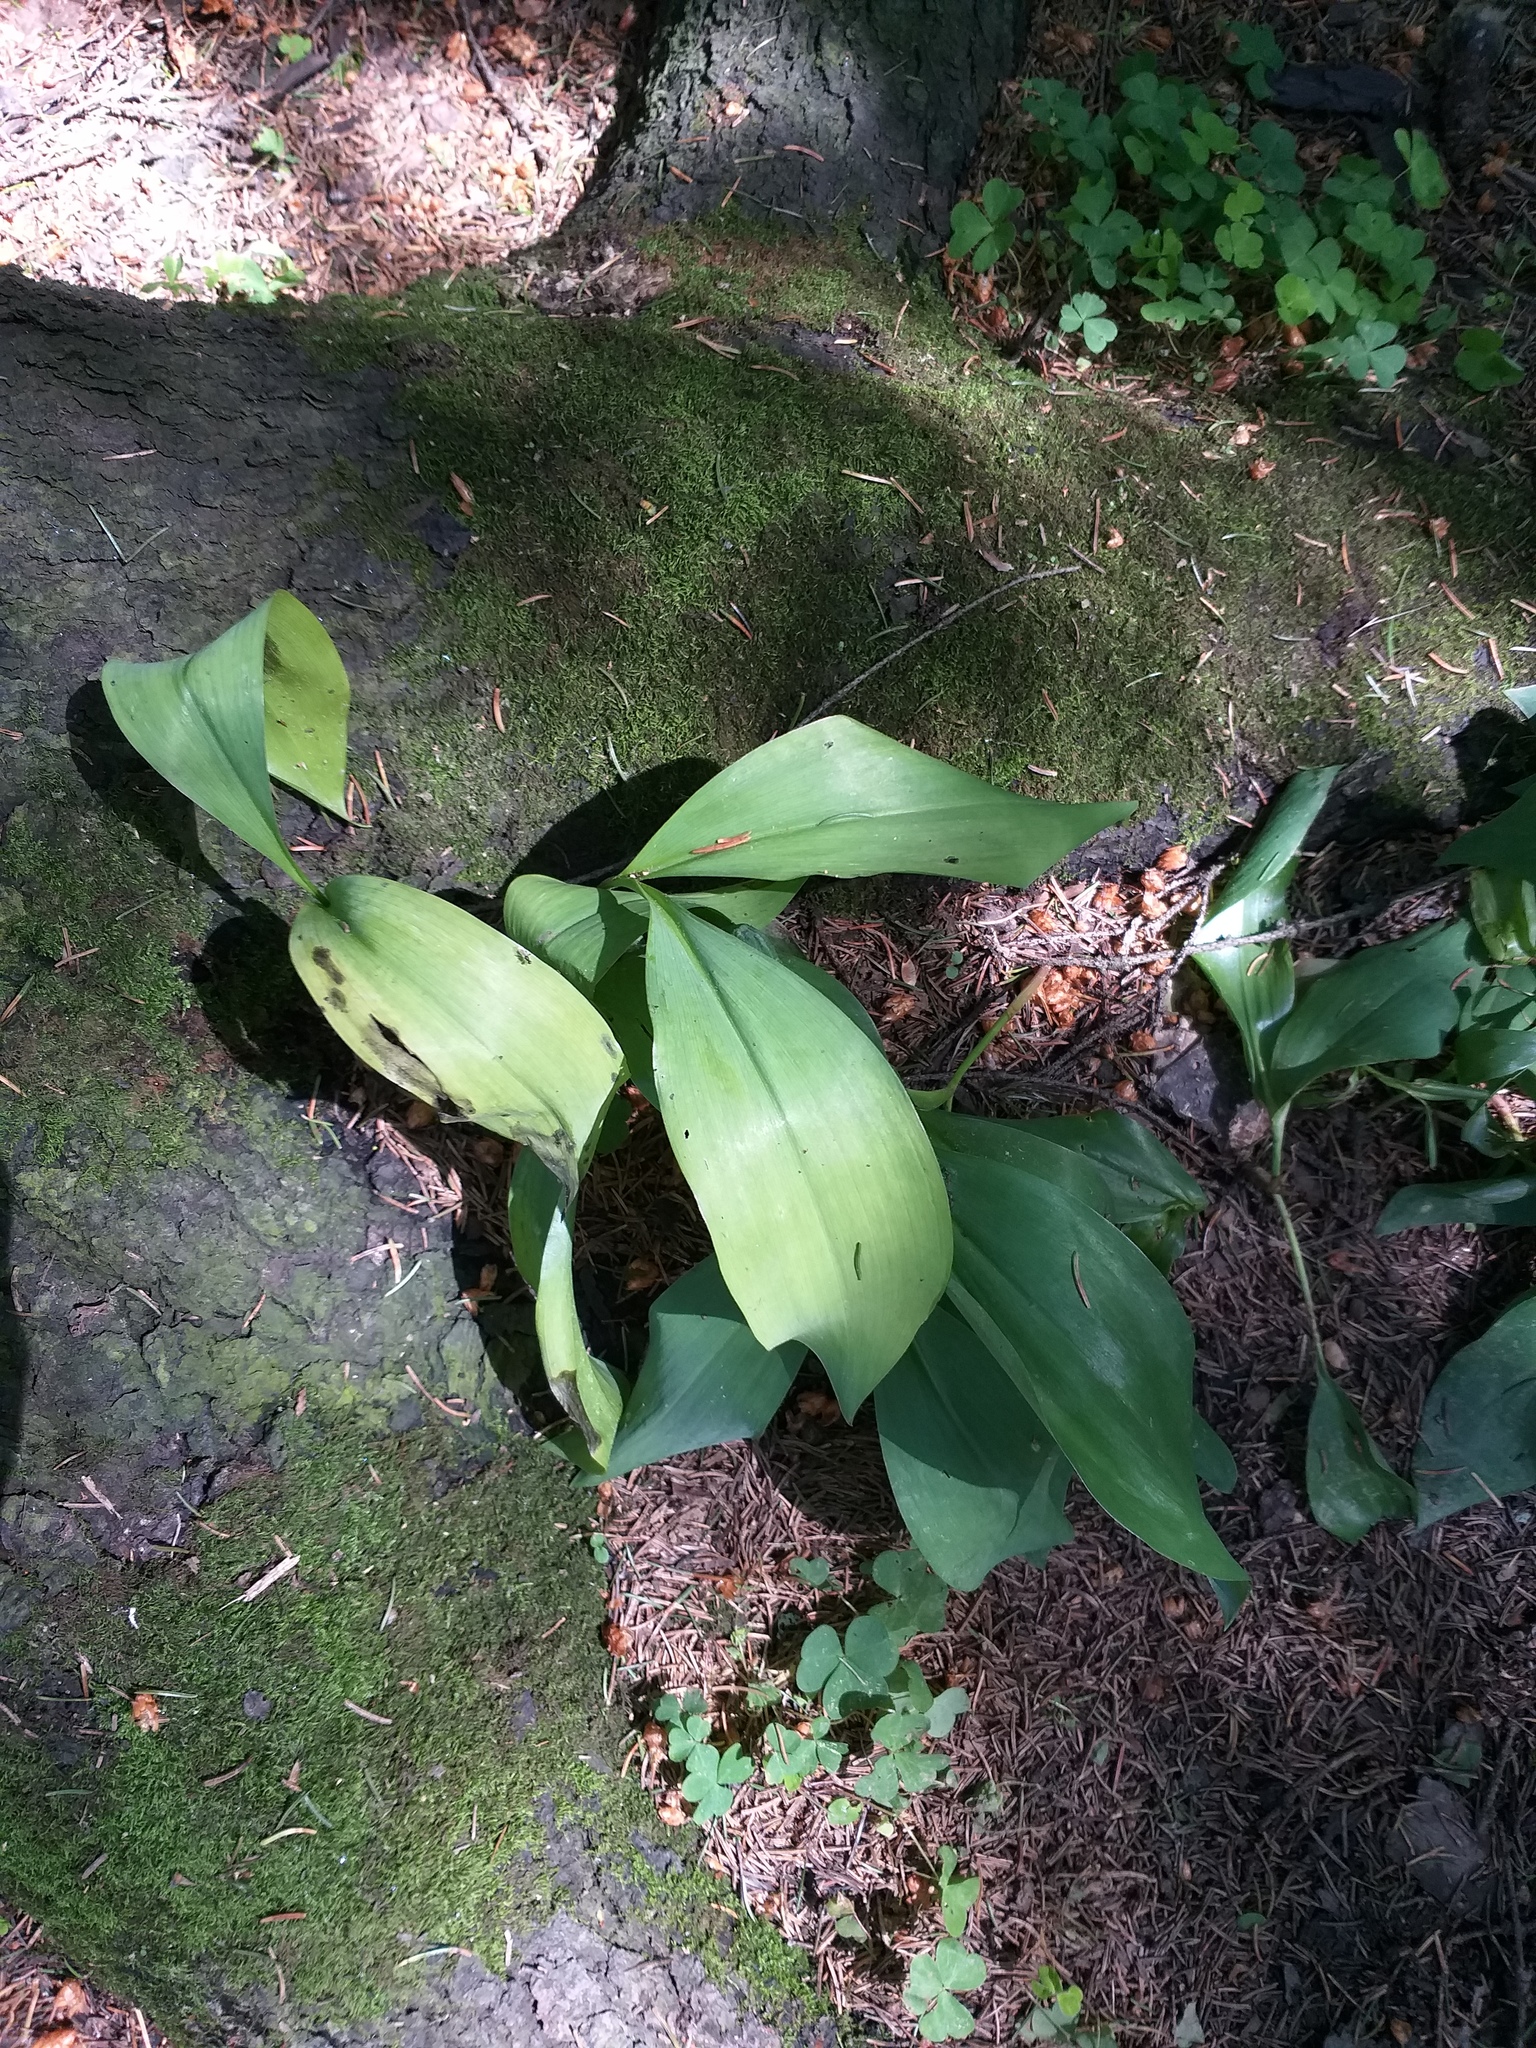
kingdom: Plantae
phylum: Tracheophyta
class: Liliopsida
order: Asparagales
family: Asparagaceae
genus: Convallaria
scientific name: Convallaria majalis
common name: Lily-of-the-valley
